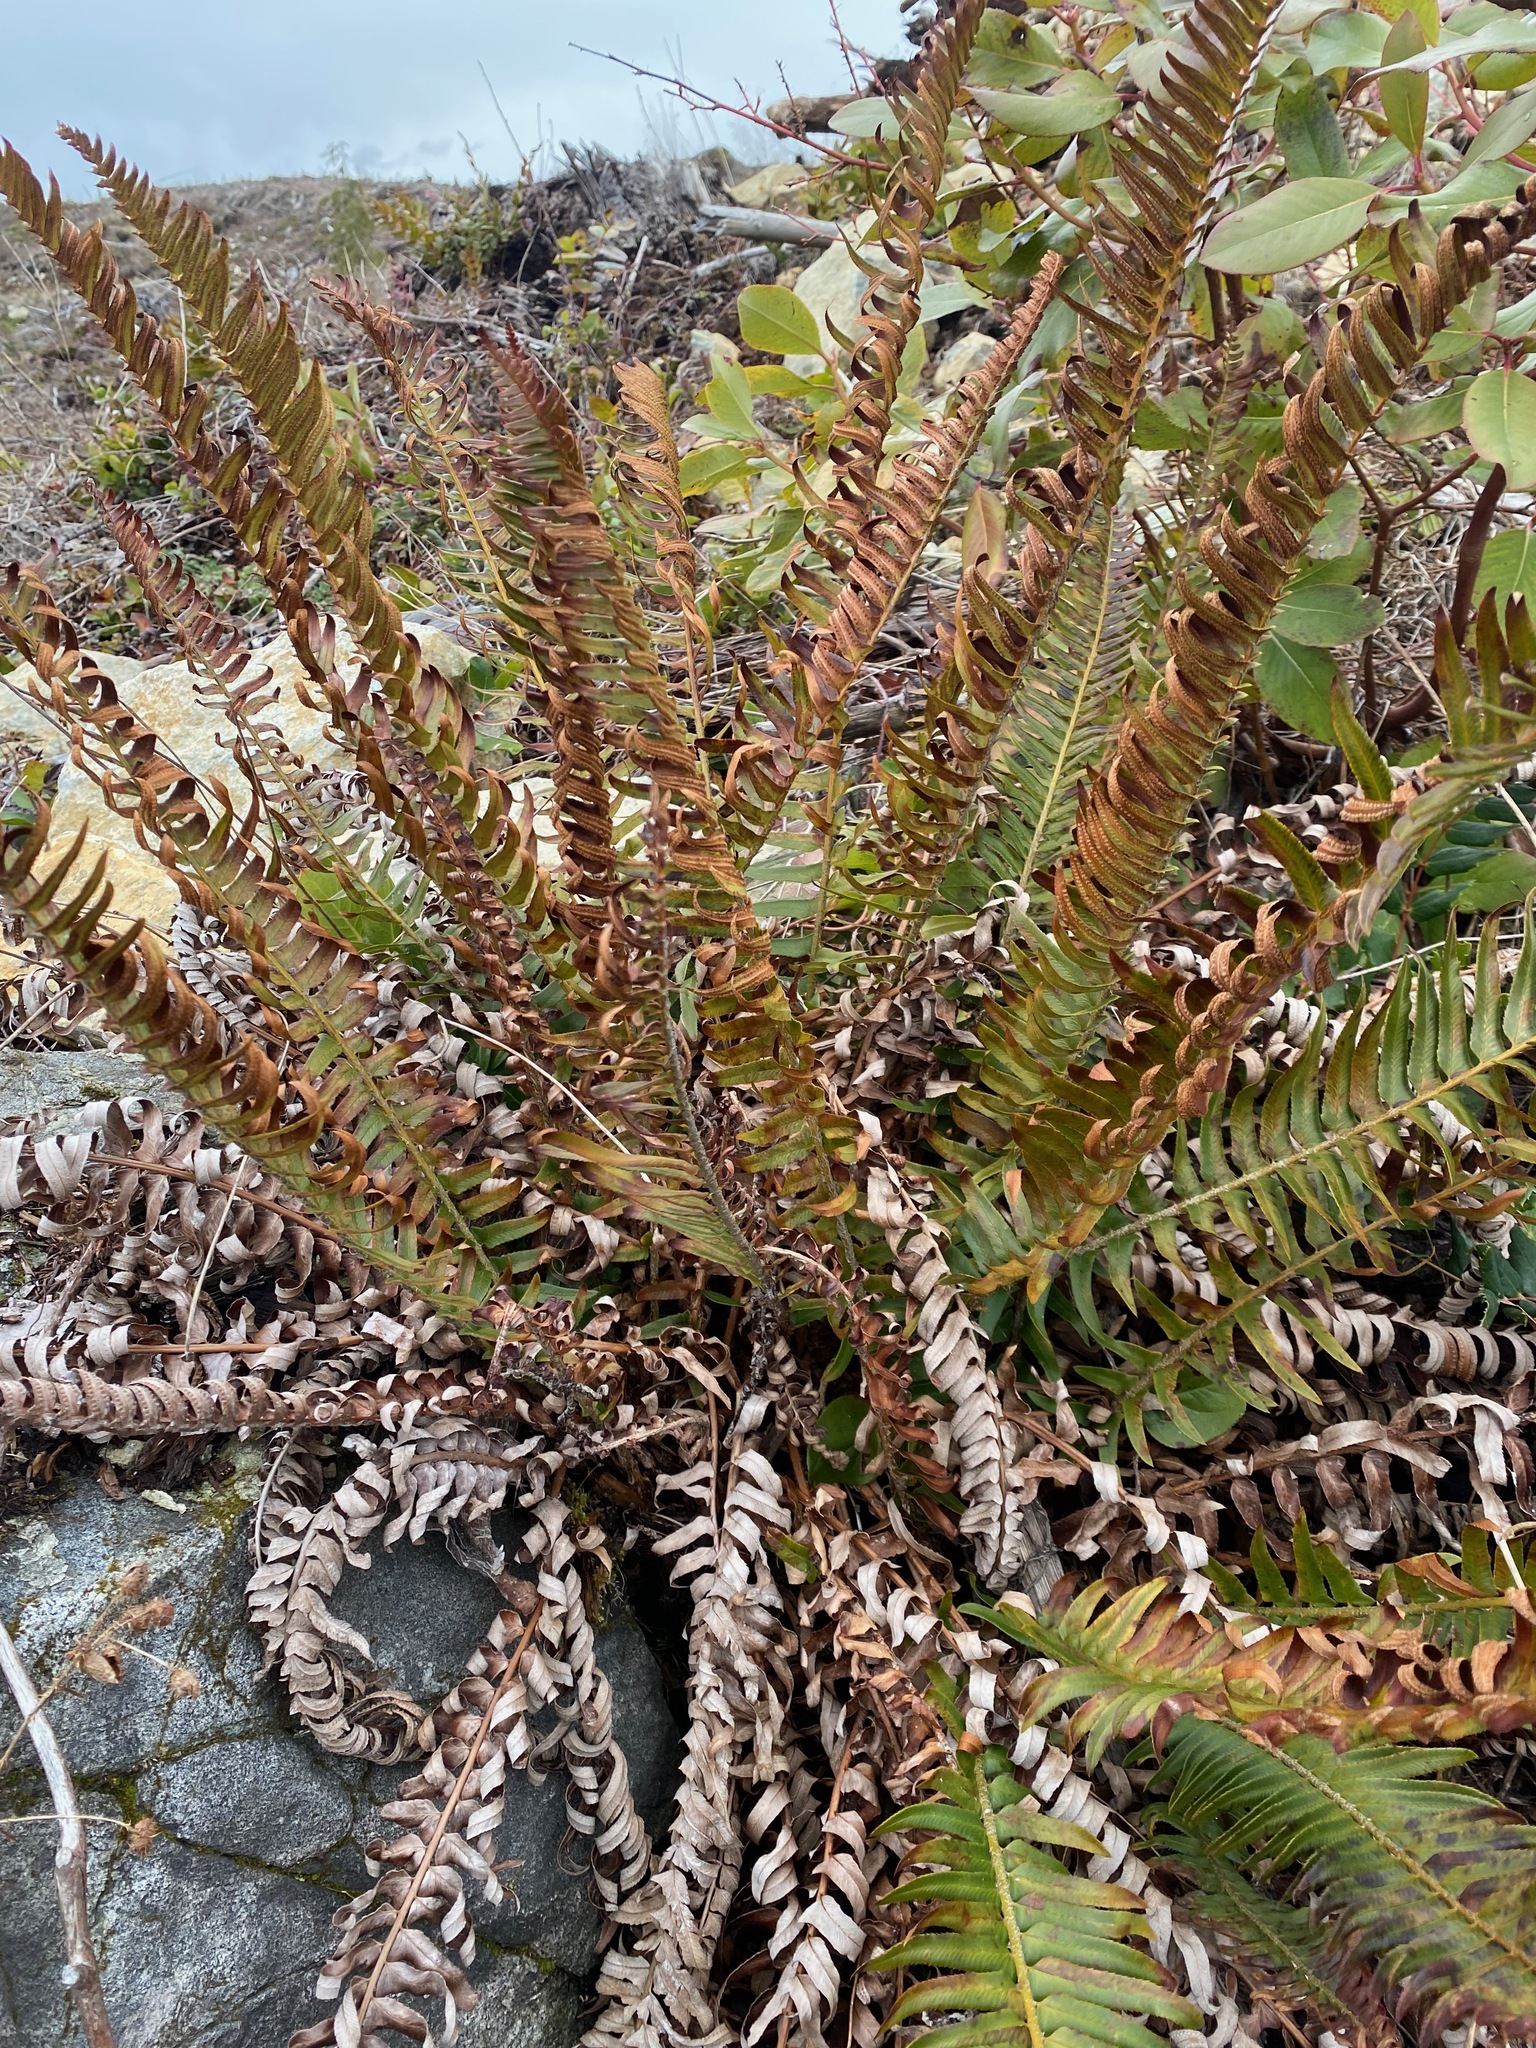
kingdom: Plantae
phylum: Tracheophyta
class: Polypodiopsida
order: Polypodiales
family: Dryopteridaceae
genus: Polystichum
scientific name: Polystichum imbricans
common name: Dwarf western sword fern
